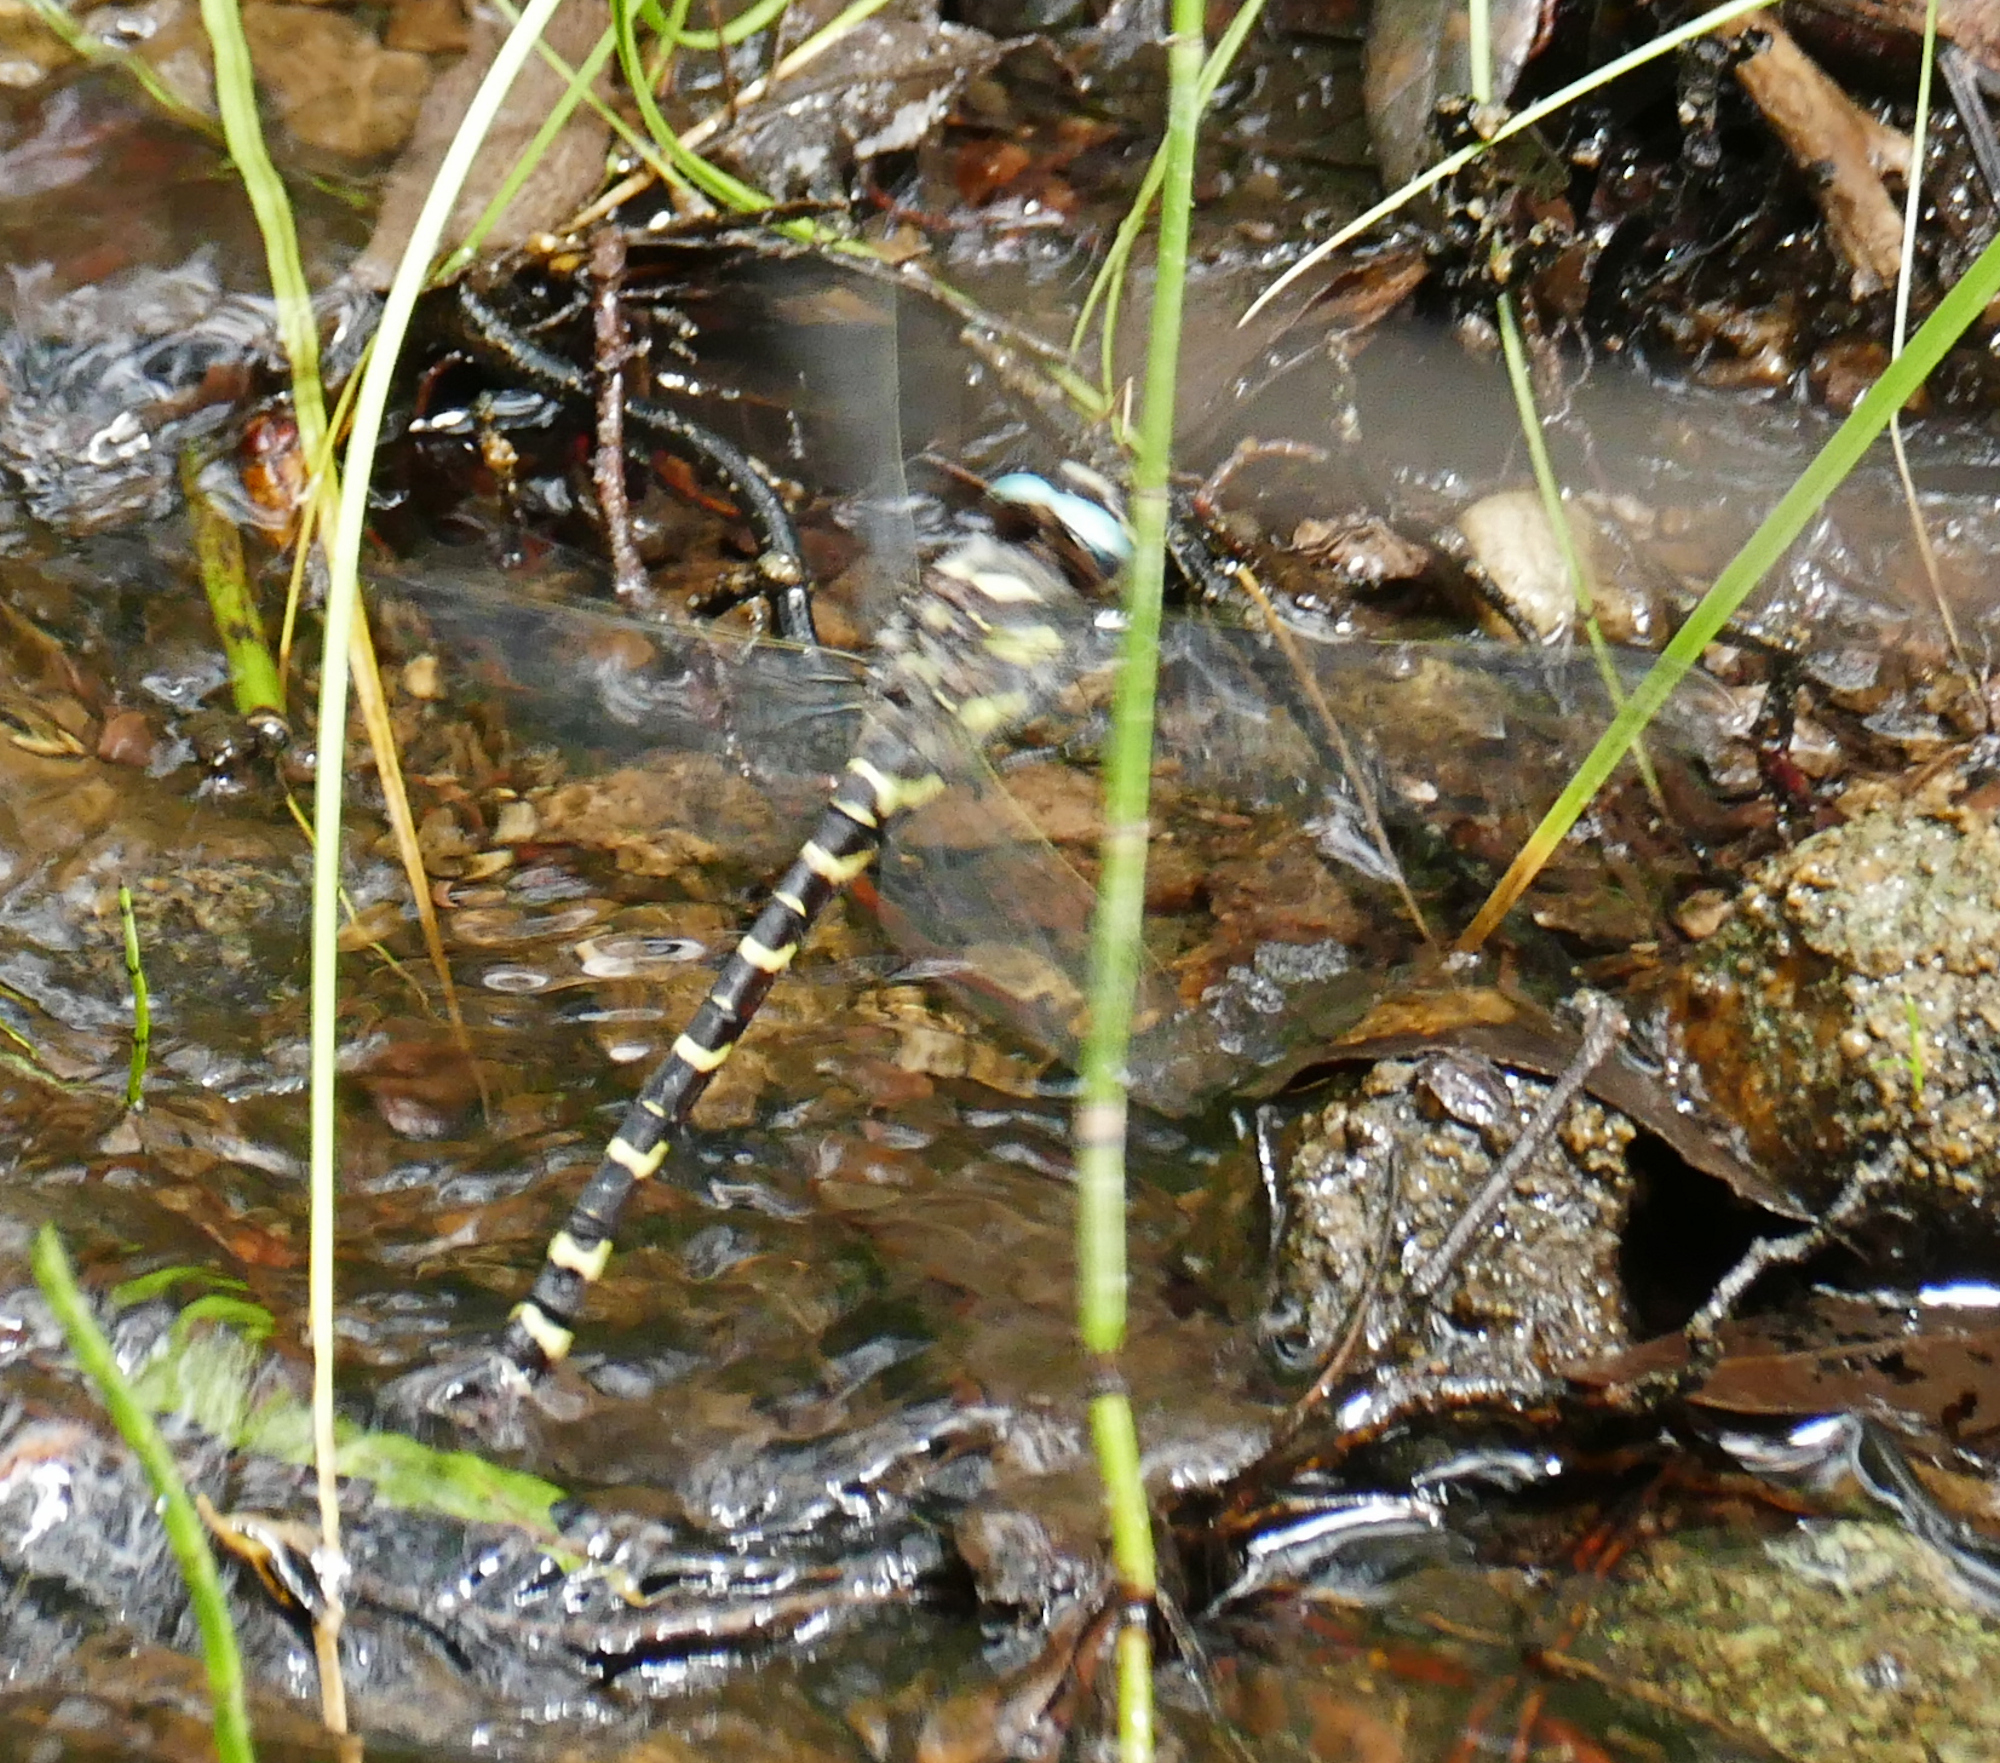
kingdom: Animalia
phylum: Arthropoda
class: Insecta
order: Odonata
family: Cordulegastridae
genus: Cordulegaster
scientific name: Cordulegaster diadema
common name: Apache spiketail
